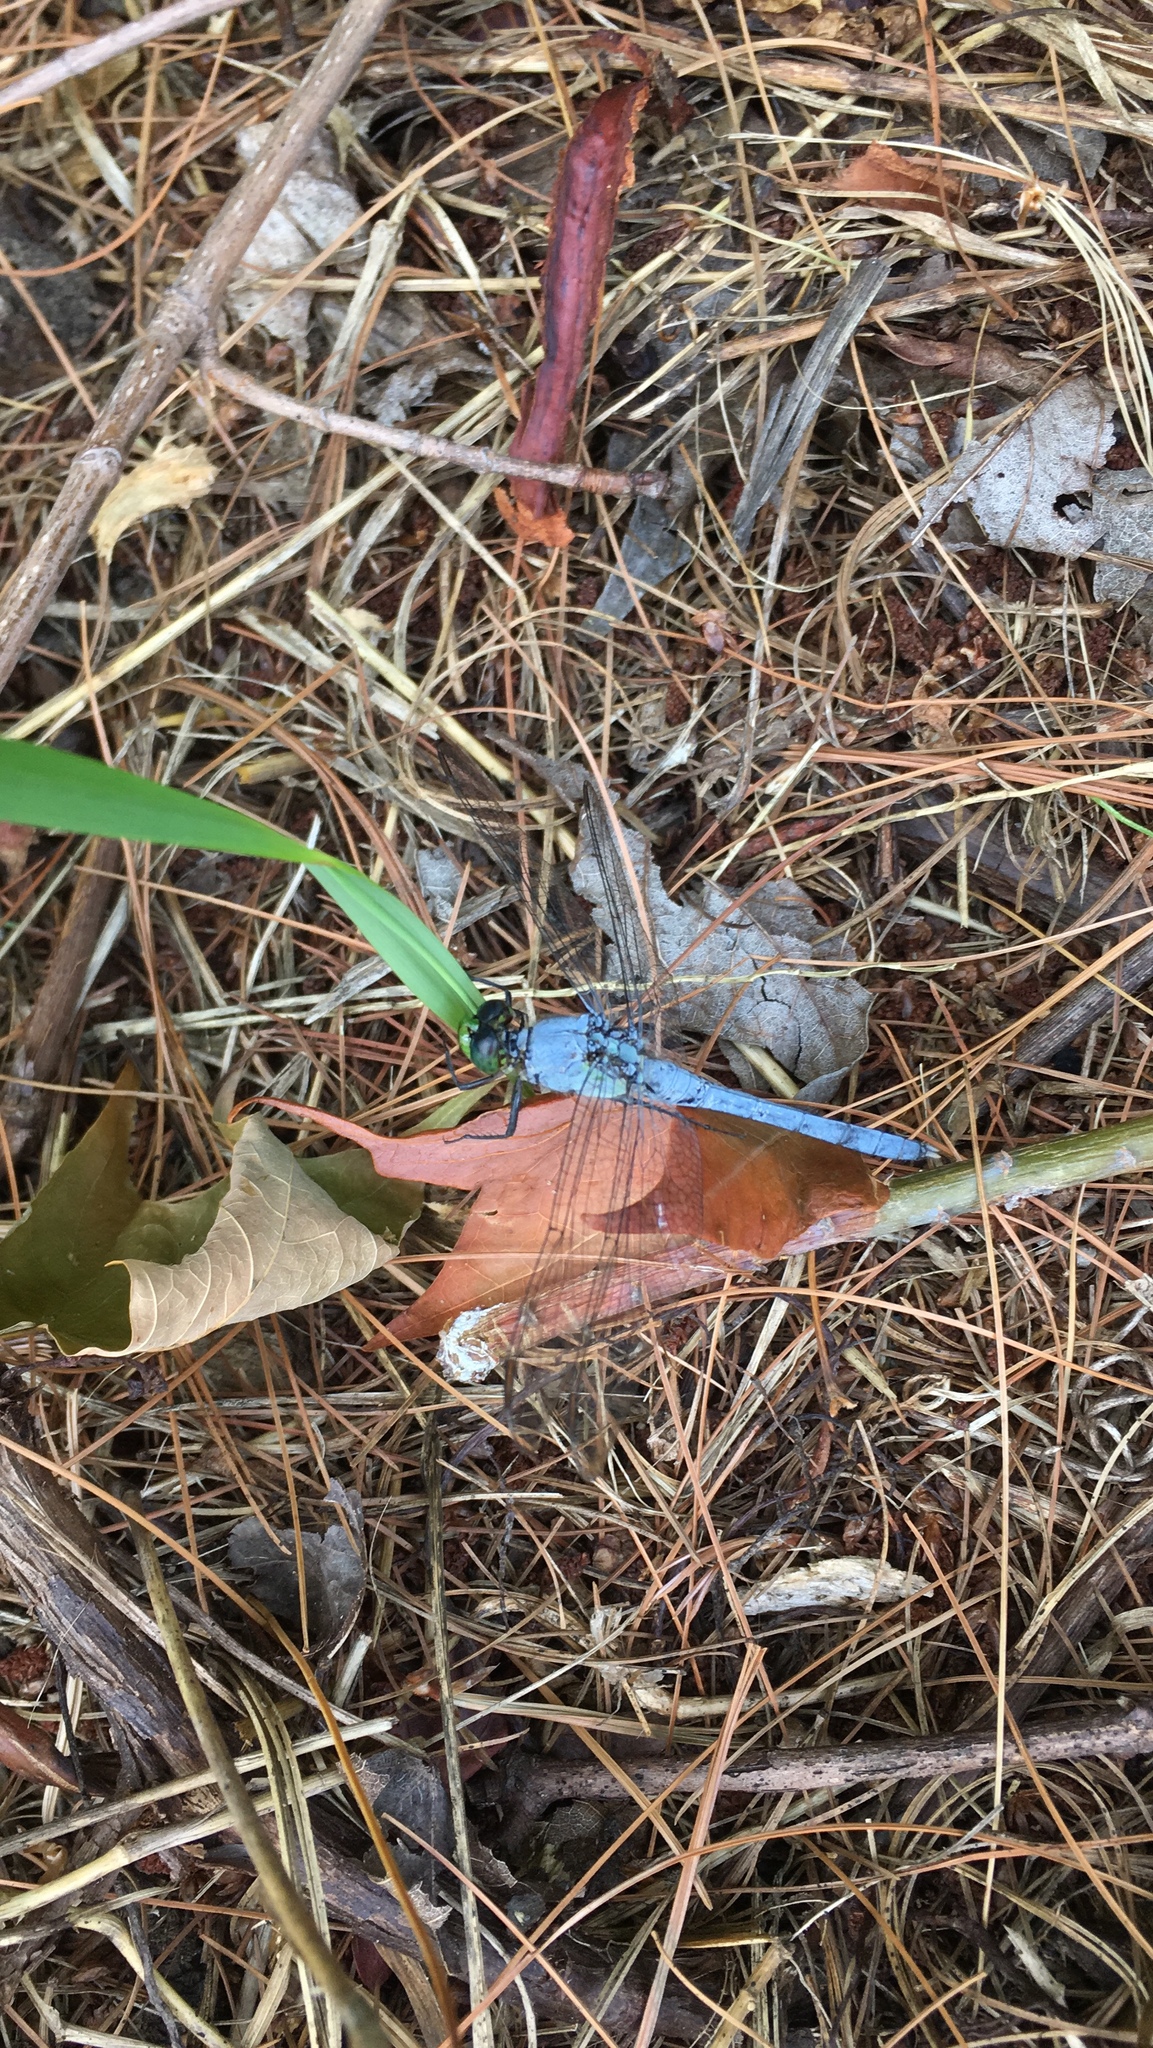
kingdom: Animalia
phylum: Arthropoda
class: Insecta
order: Odonata
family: Libellulidae
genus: Erythemis
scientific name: Erythemis simplicicollis
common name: Eastern pondhawk
